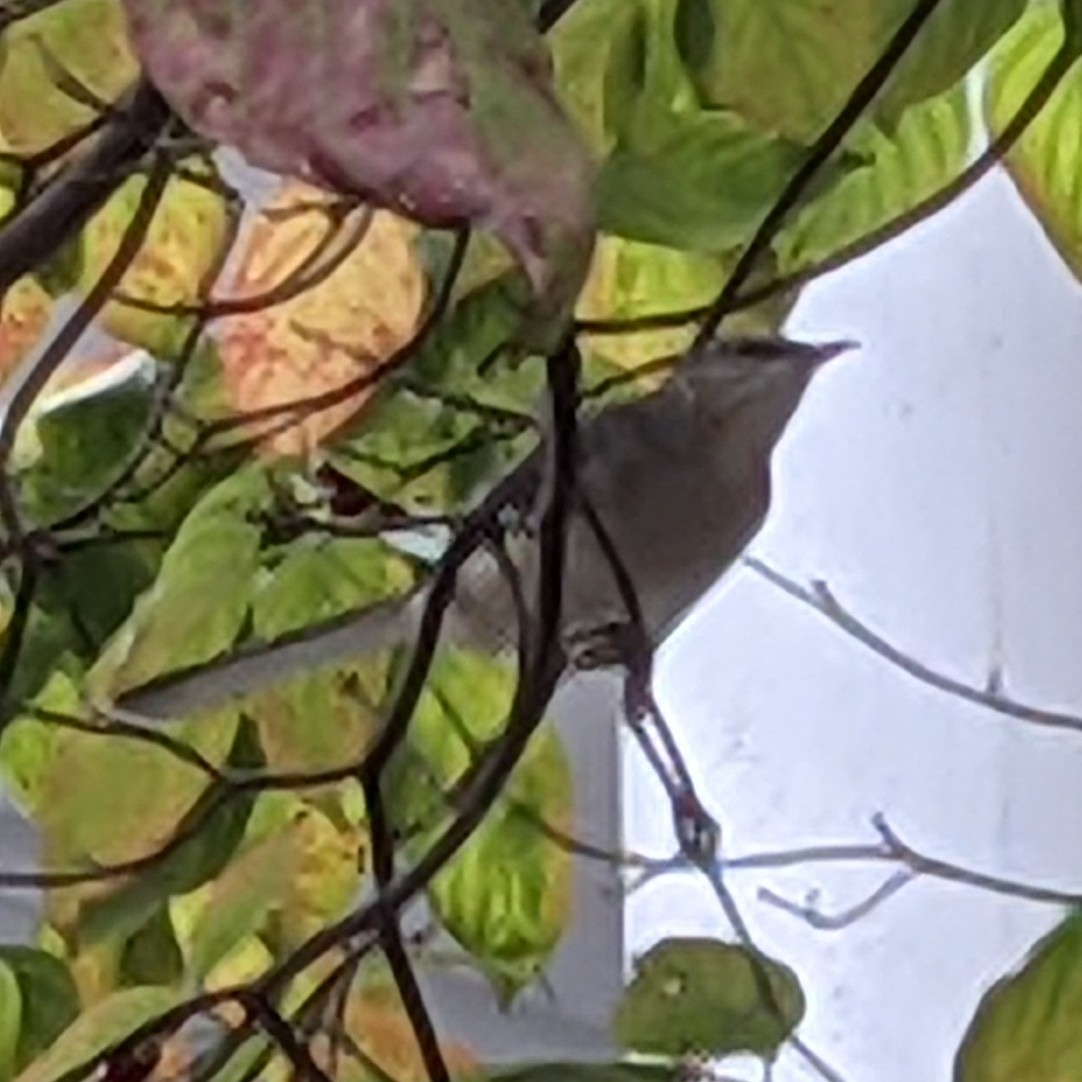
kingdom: Animalia
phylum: Chordata
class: Aves
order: Passeriformes
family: Mimidae
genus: Mimus
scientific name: Mimus polyglottos
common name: Northern mockingbird
